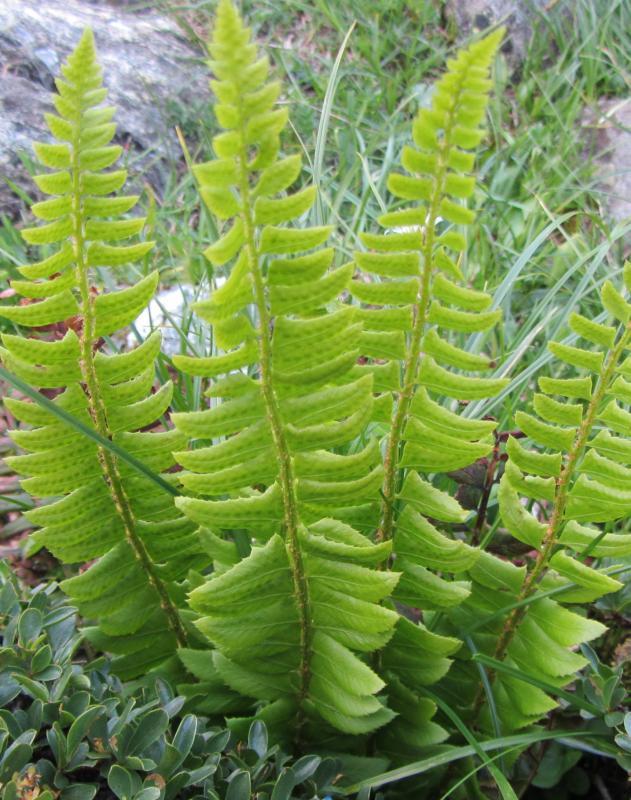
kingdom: Plantae
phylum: Tracheophyta
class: Polypodiopsida
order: Polypodiales
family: Dryopteridaceae
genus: Polystichum
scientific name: Polystichum lonchitis
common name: Holly fern
